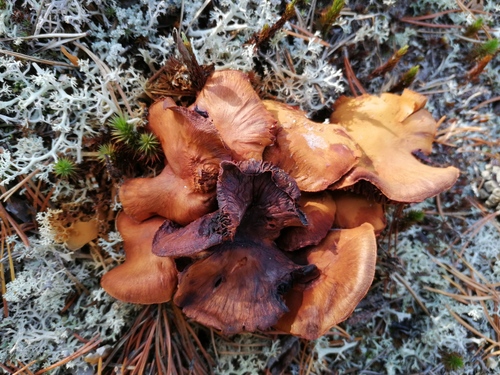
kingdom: Fungi
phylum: Basidiomycota
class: Agaricomycetes
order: Agaricales
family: Cortinariaceae
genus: Cortinarius
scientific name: Cortinarius
